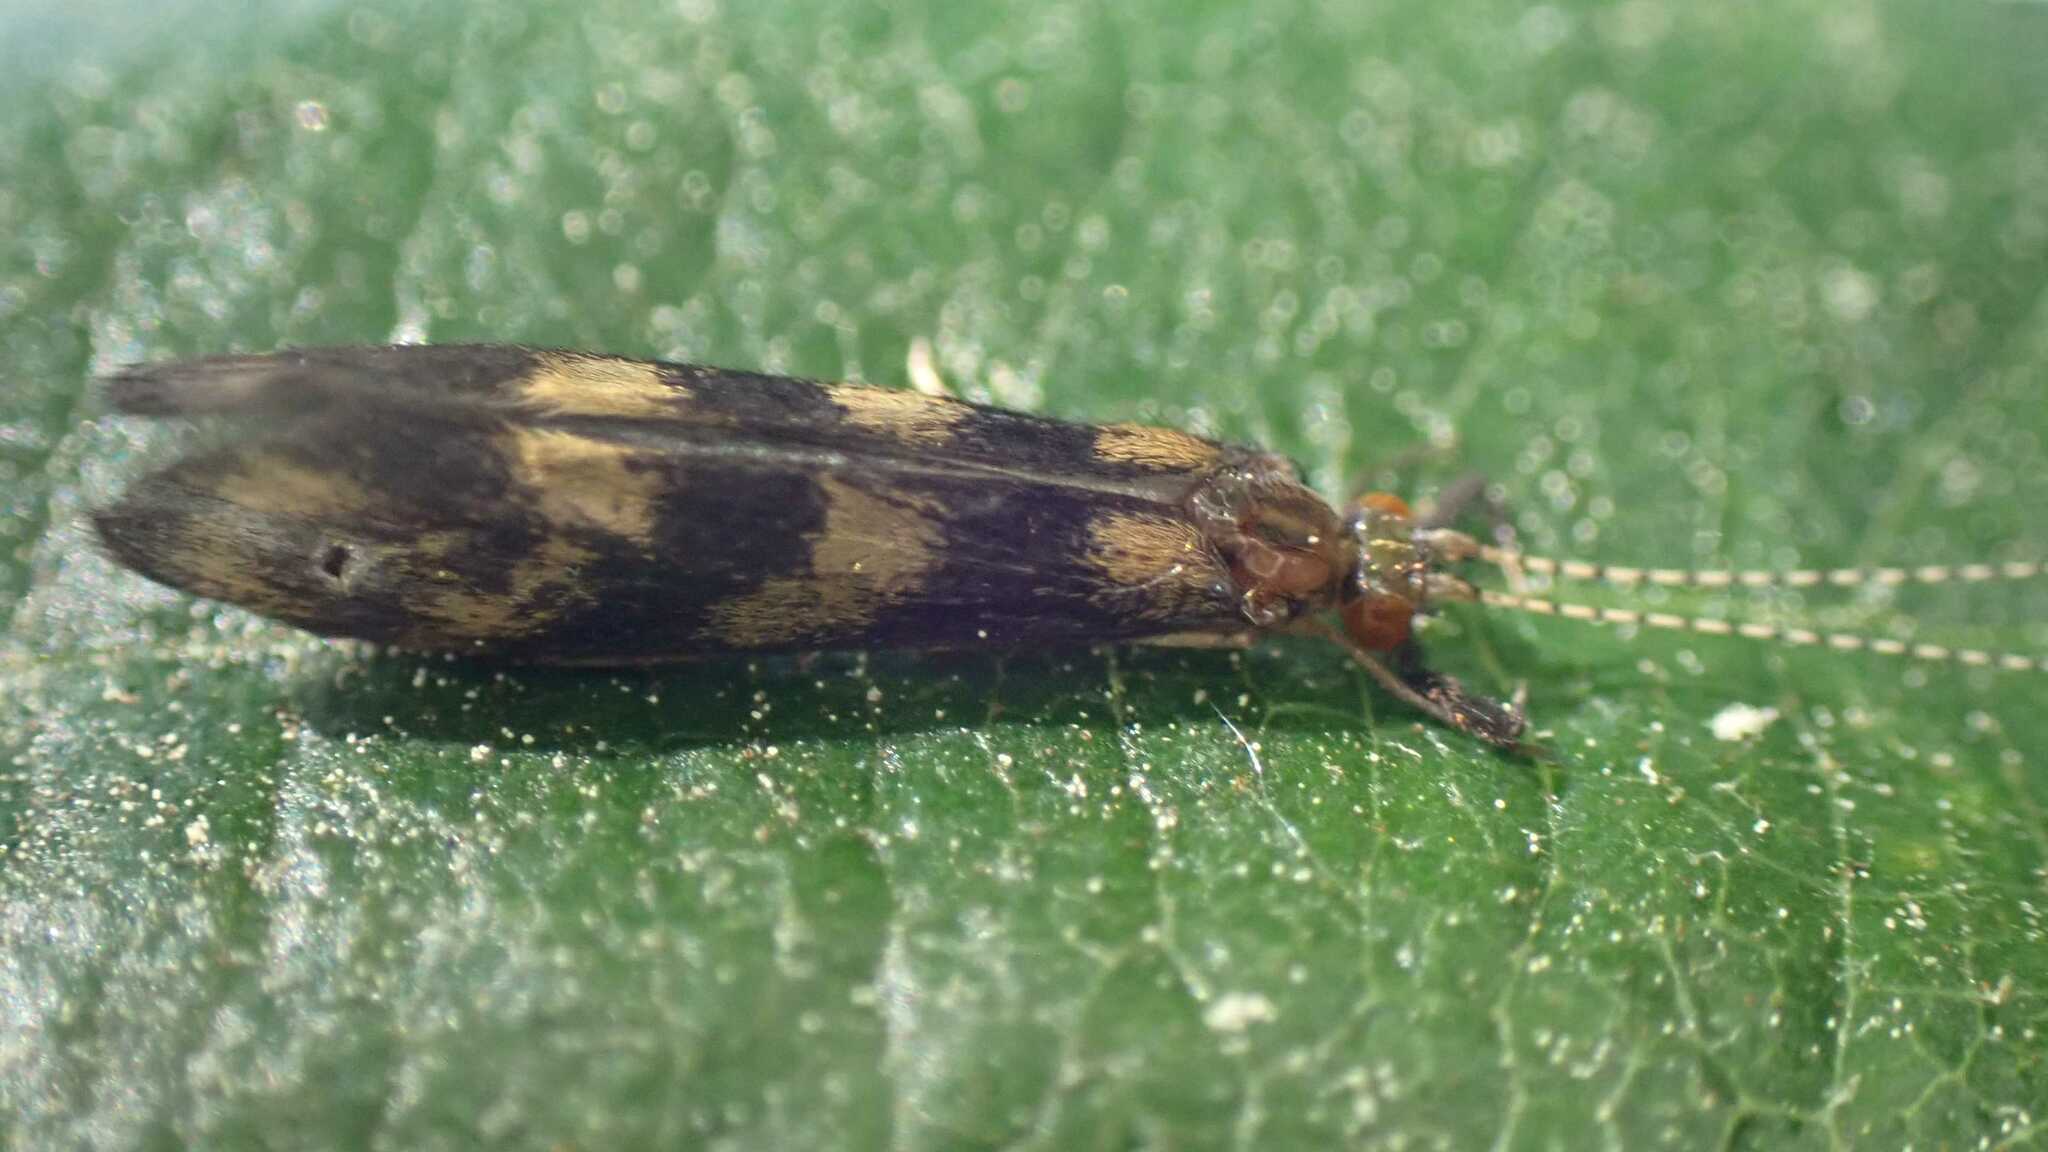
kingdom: Animalia
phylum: Arthropoda
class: Insecta
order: Trichoptera
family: Leptoceridae
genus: Mystacides
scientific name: Mystacides longicornis
